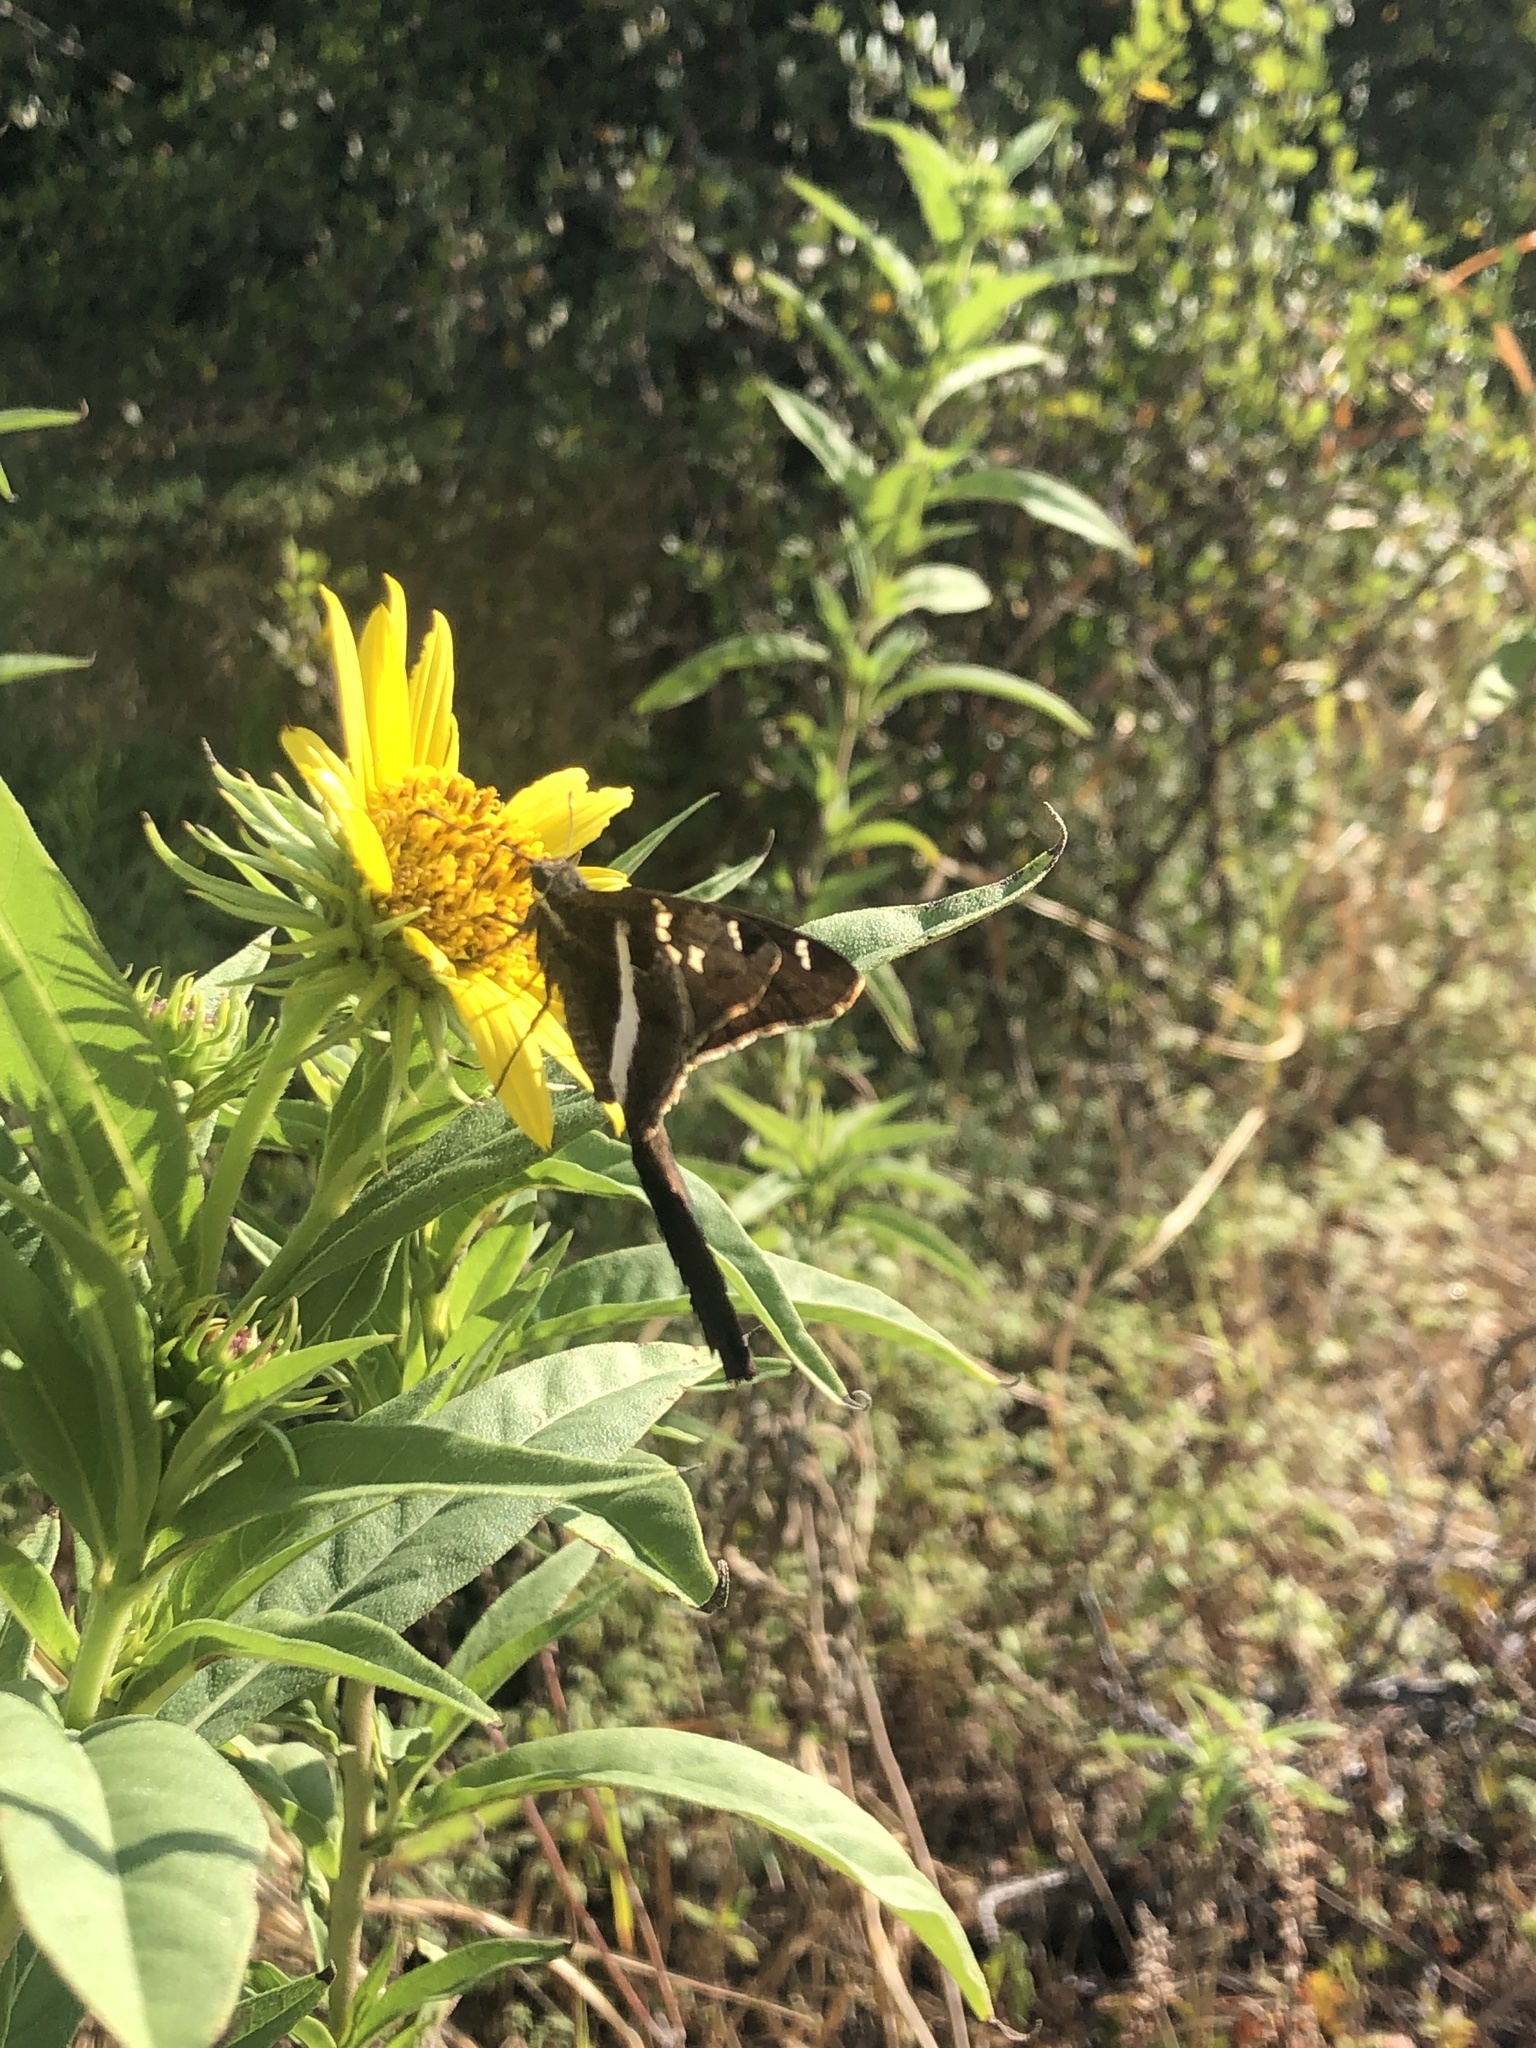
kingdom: Animalia
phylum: Arthropoda
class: Insecta
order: Lepidoptera
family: Hesperiidae
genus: Chioides
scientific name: Chioides catillus
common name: Silverbanded skipper
